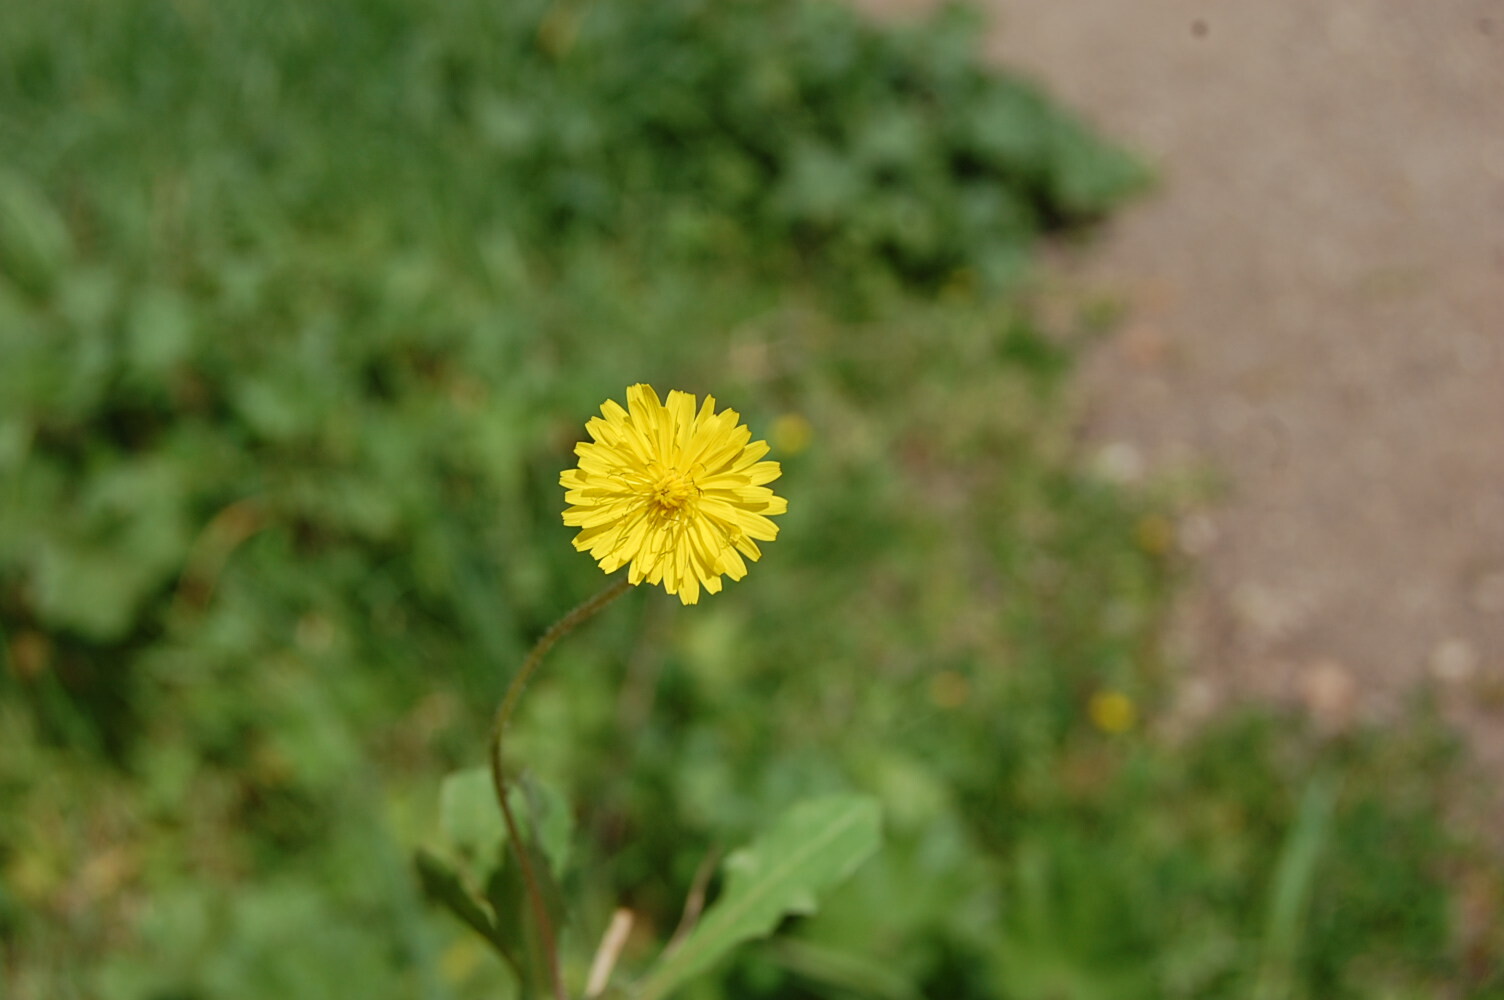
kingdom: Plantae
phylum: Tracheophyta
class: Magnoliopsida
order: Asterales
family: Asteraceae
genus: Crepis
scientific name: Crepis sancta
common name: Hawk's-beard
